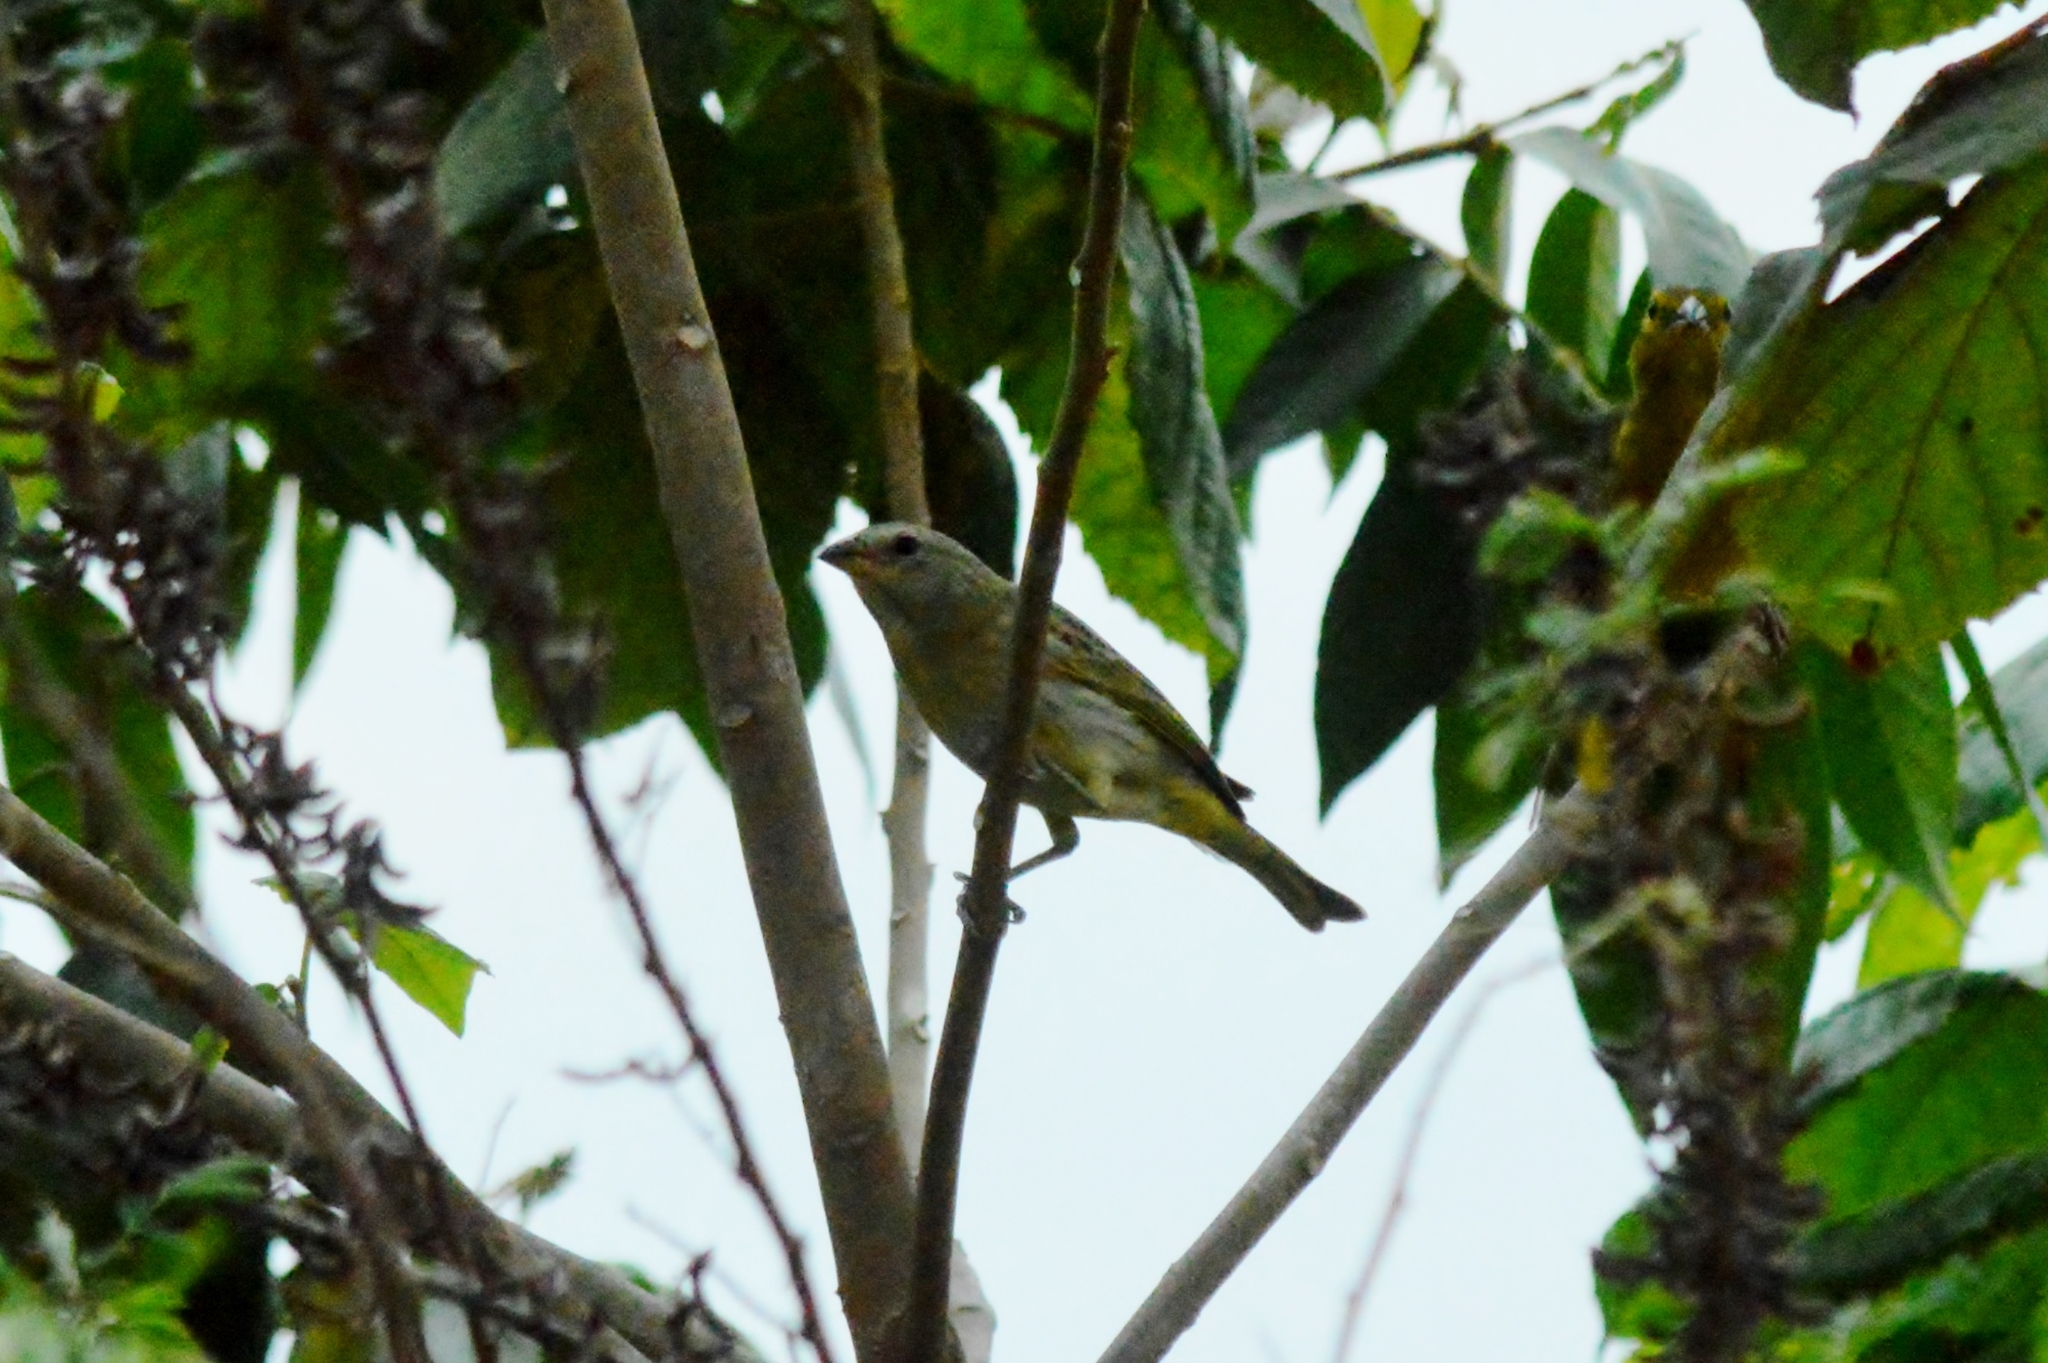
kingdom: Animalia
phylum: Chordata
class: Aves
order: Passeriformes
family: Thraupidae
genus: Sicalis
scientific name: Sicalis flaveola
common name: Saffron finch
